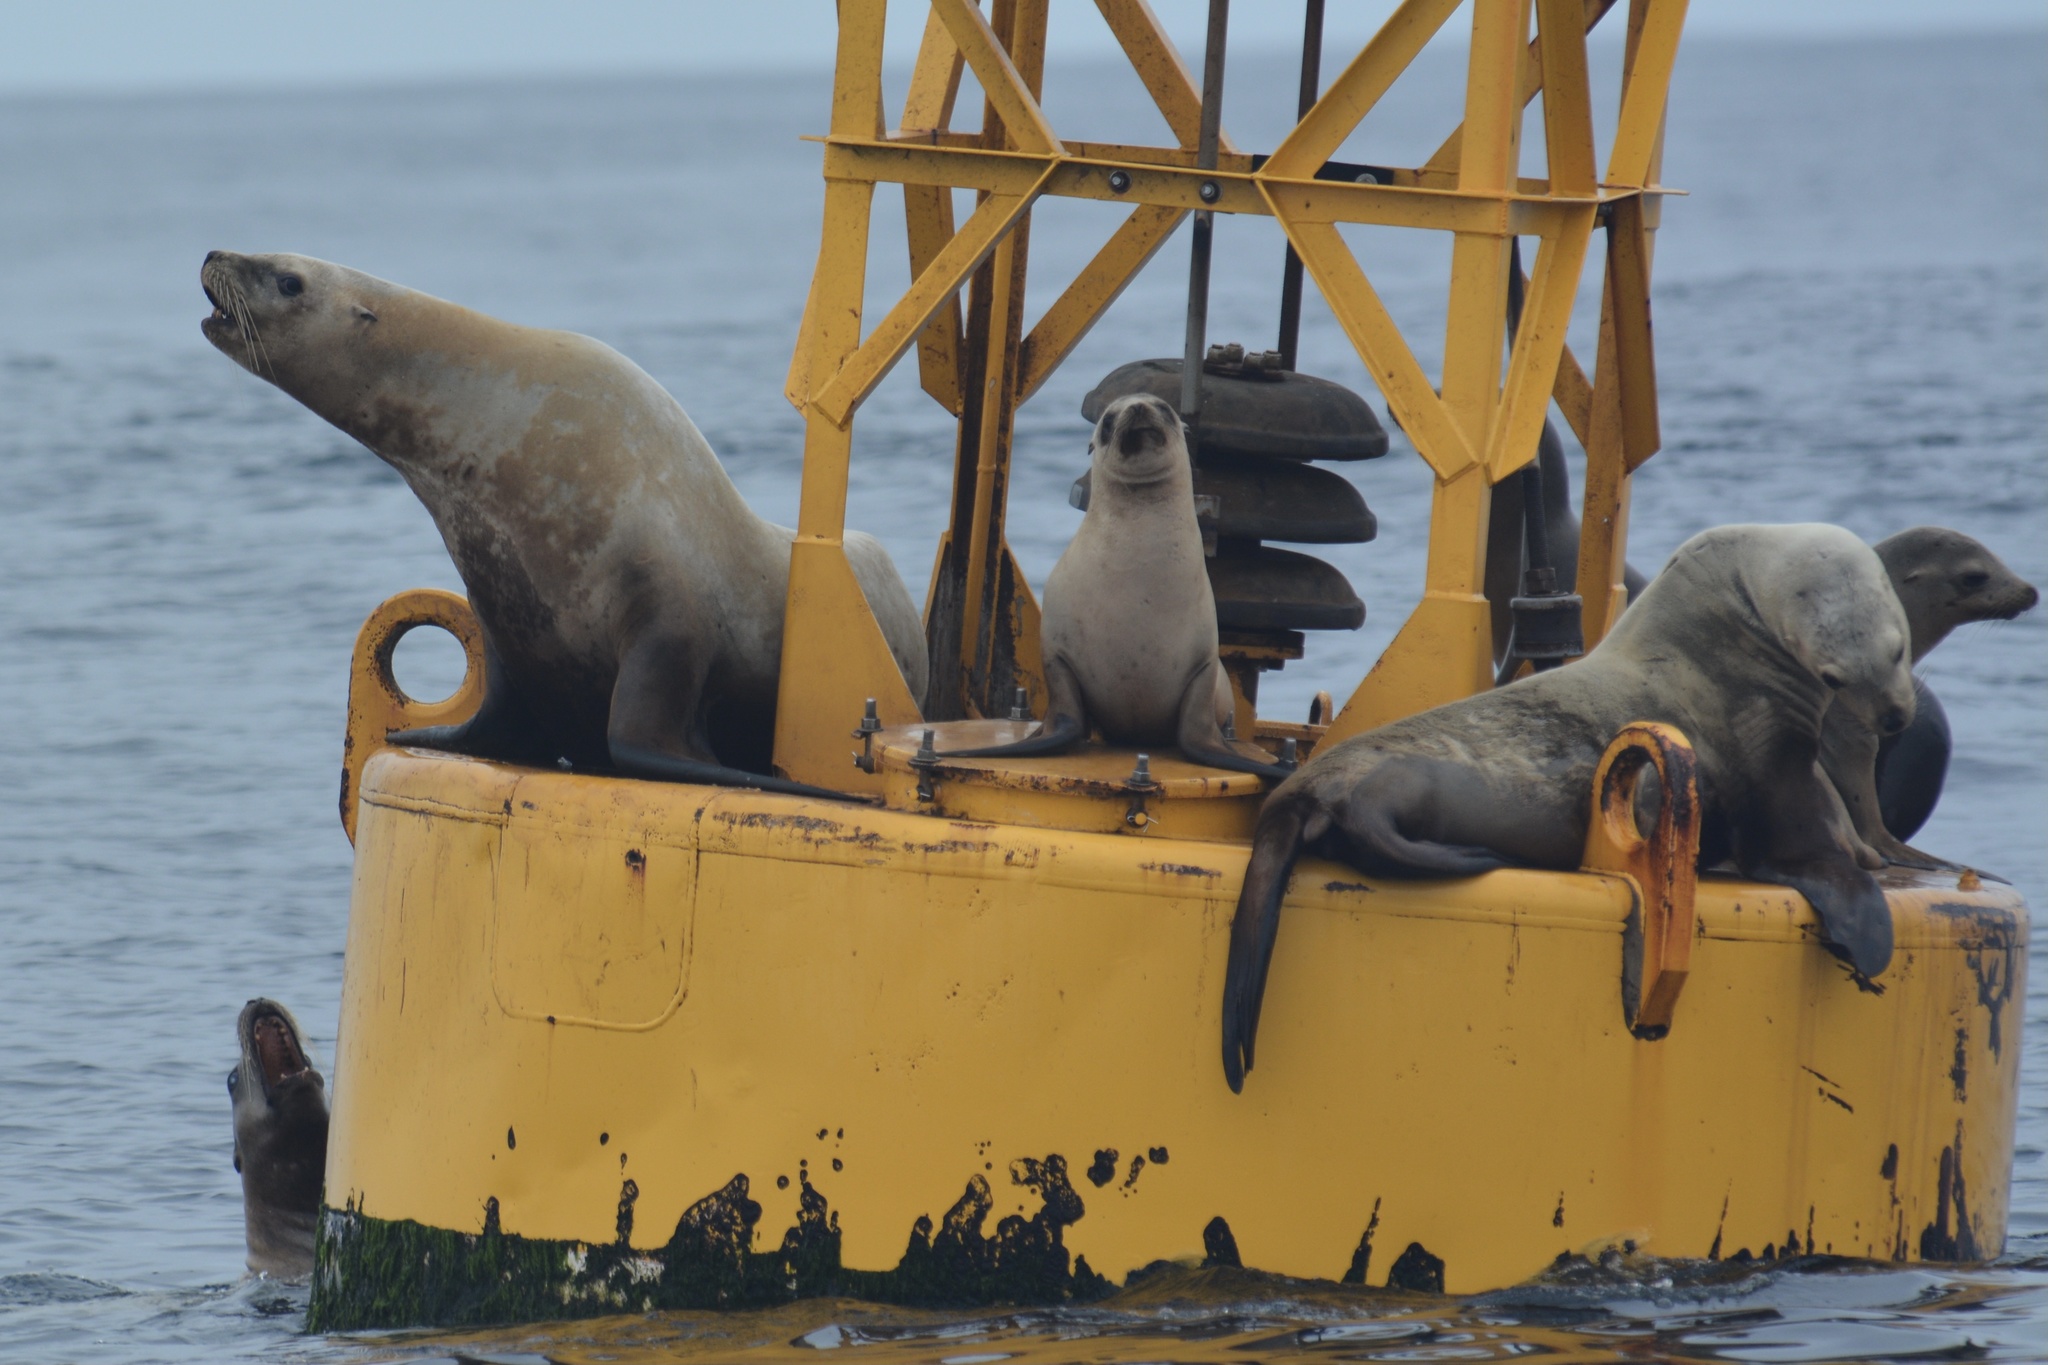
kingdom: Animalia
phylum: Chordata
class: Mammalia
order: Carnivora
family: Otariidae
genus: Eumetopias
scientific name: Eumetopias jubatus
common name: Steller sea lion
